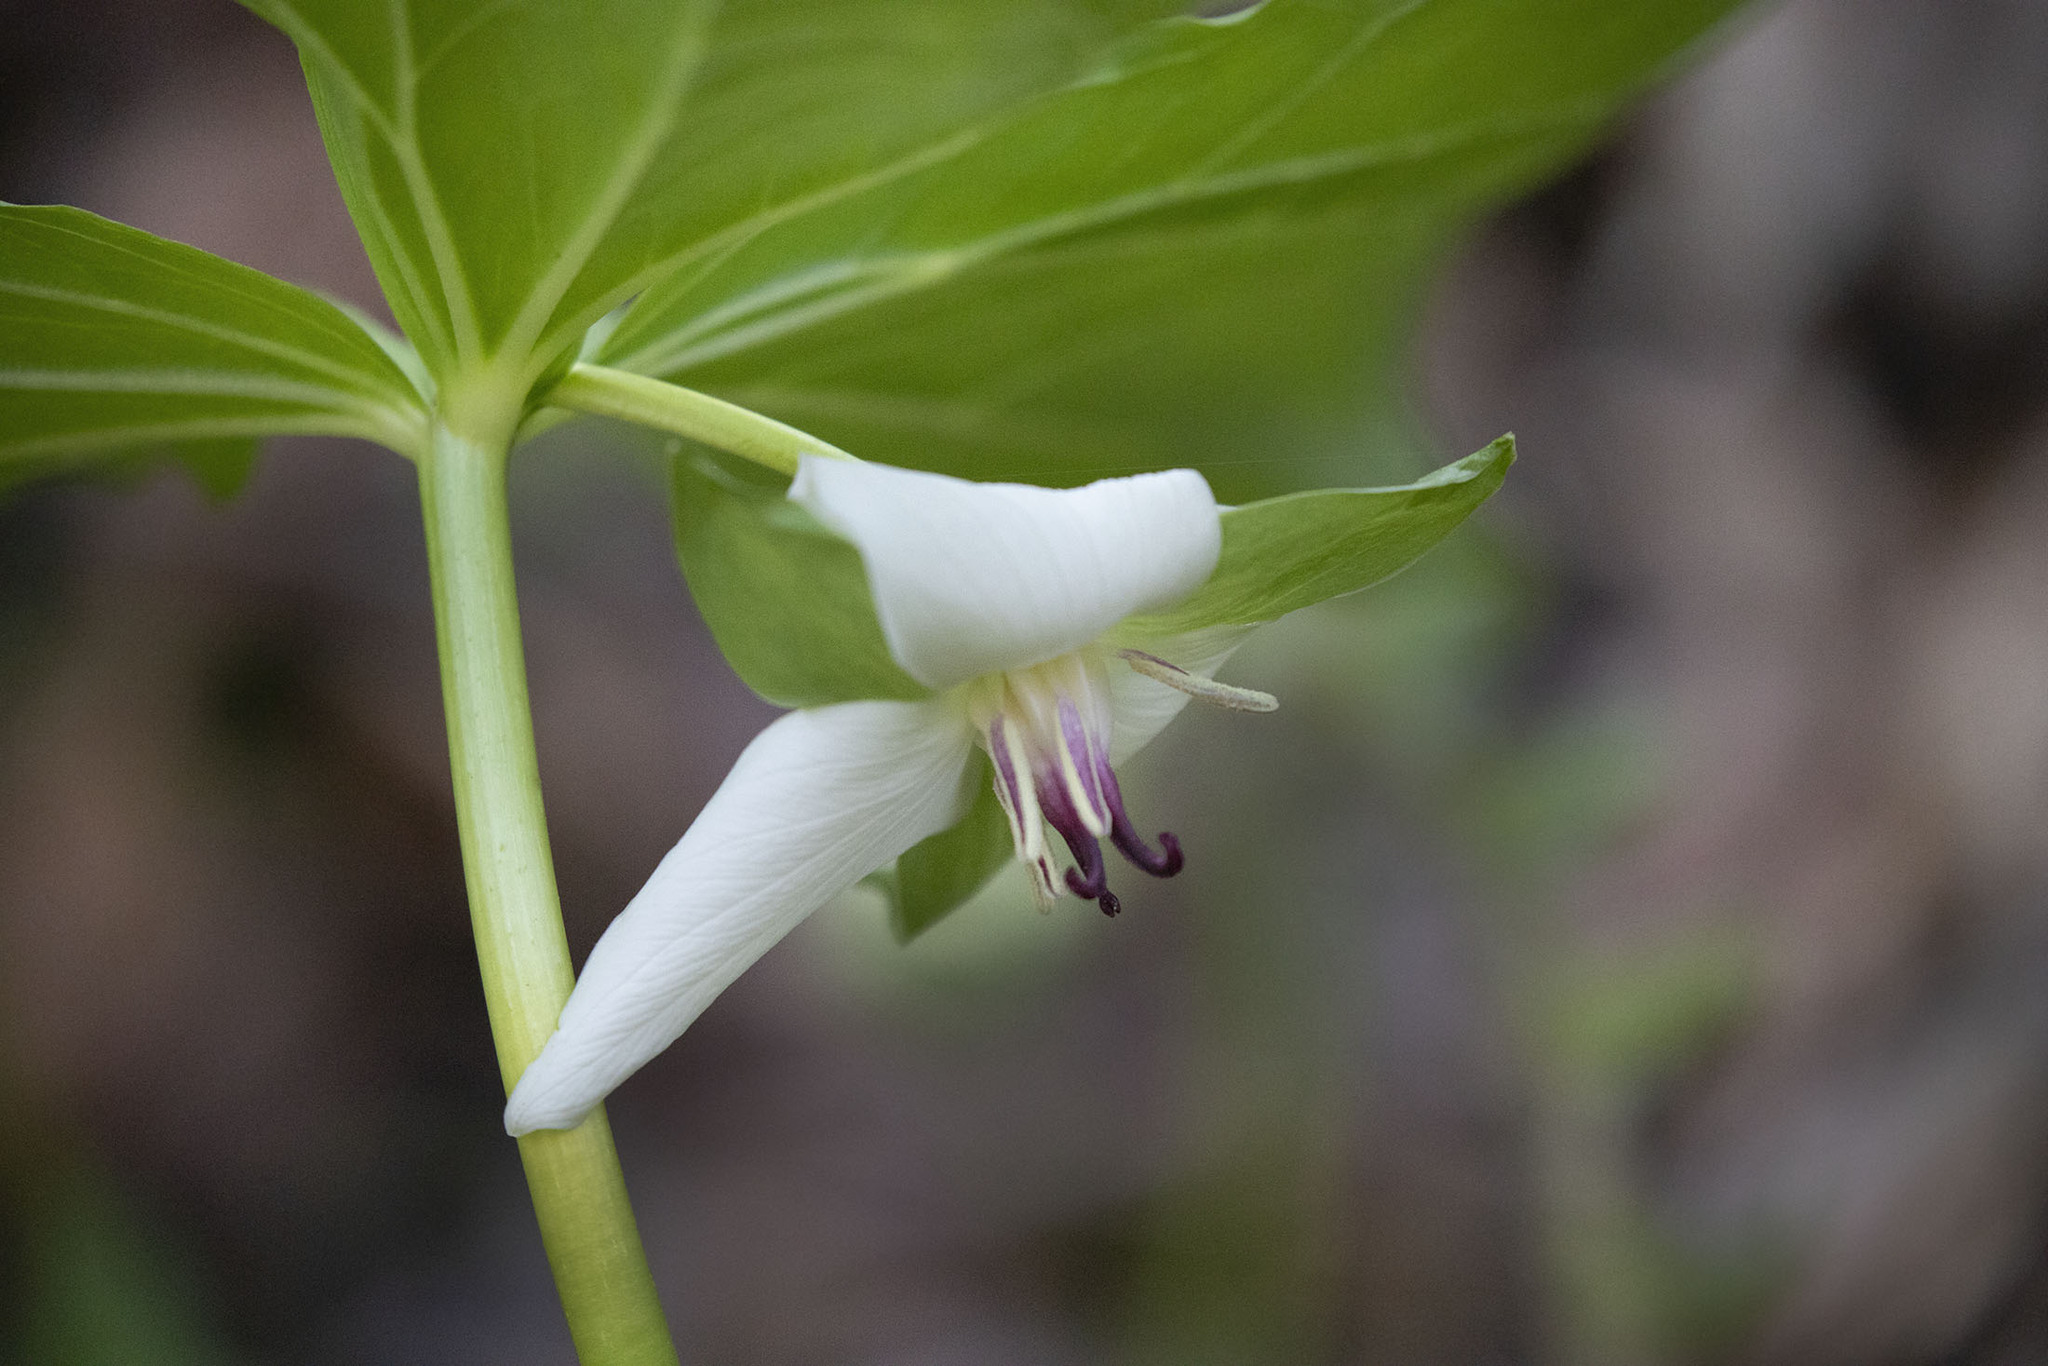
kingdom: Plantae
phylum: Tracheophyta
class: Liliopsida
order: Liliales
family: Melanthiaceae
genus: Trillium
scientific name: Trillium rugelii
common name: Ill-scented trillium
